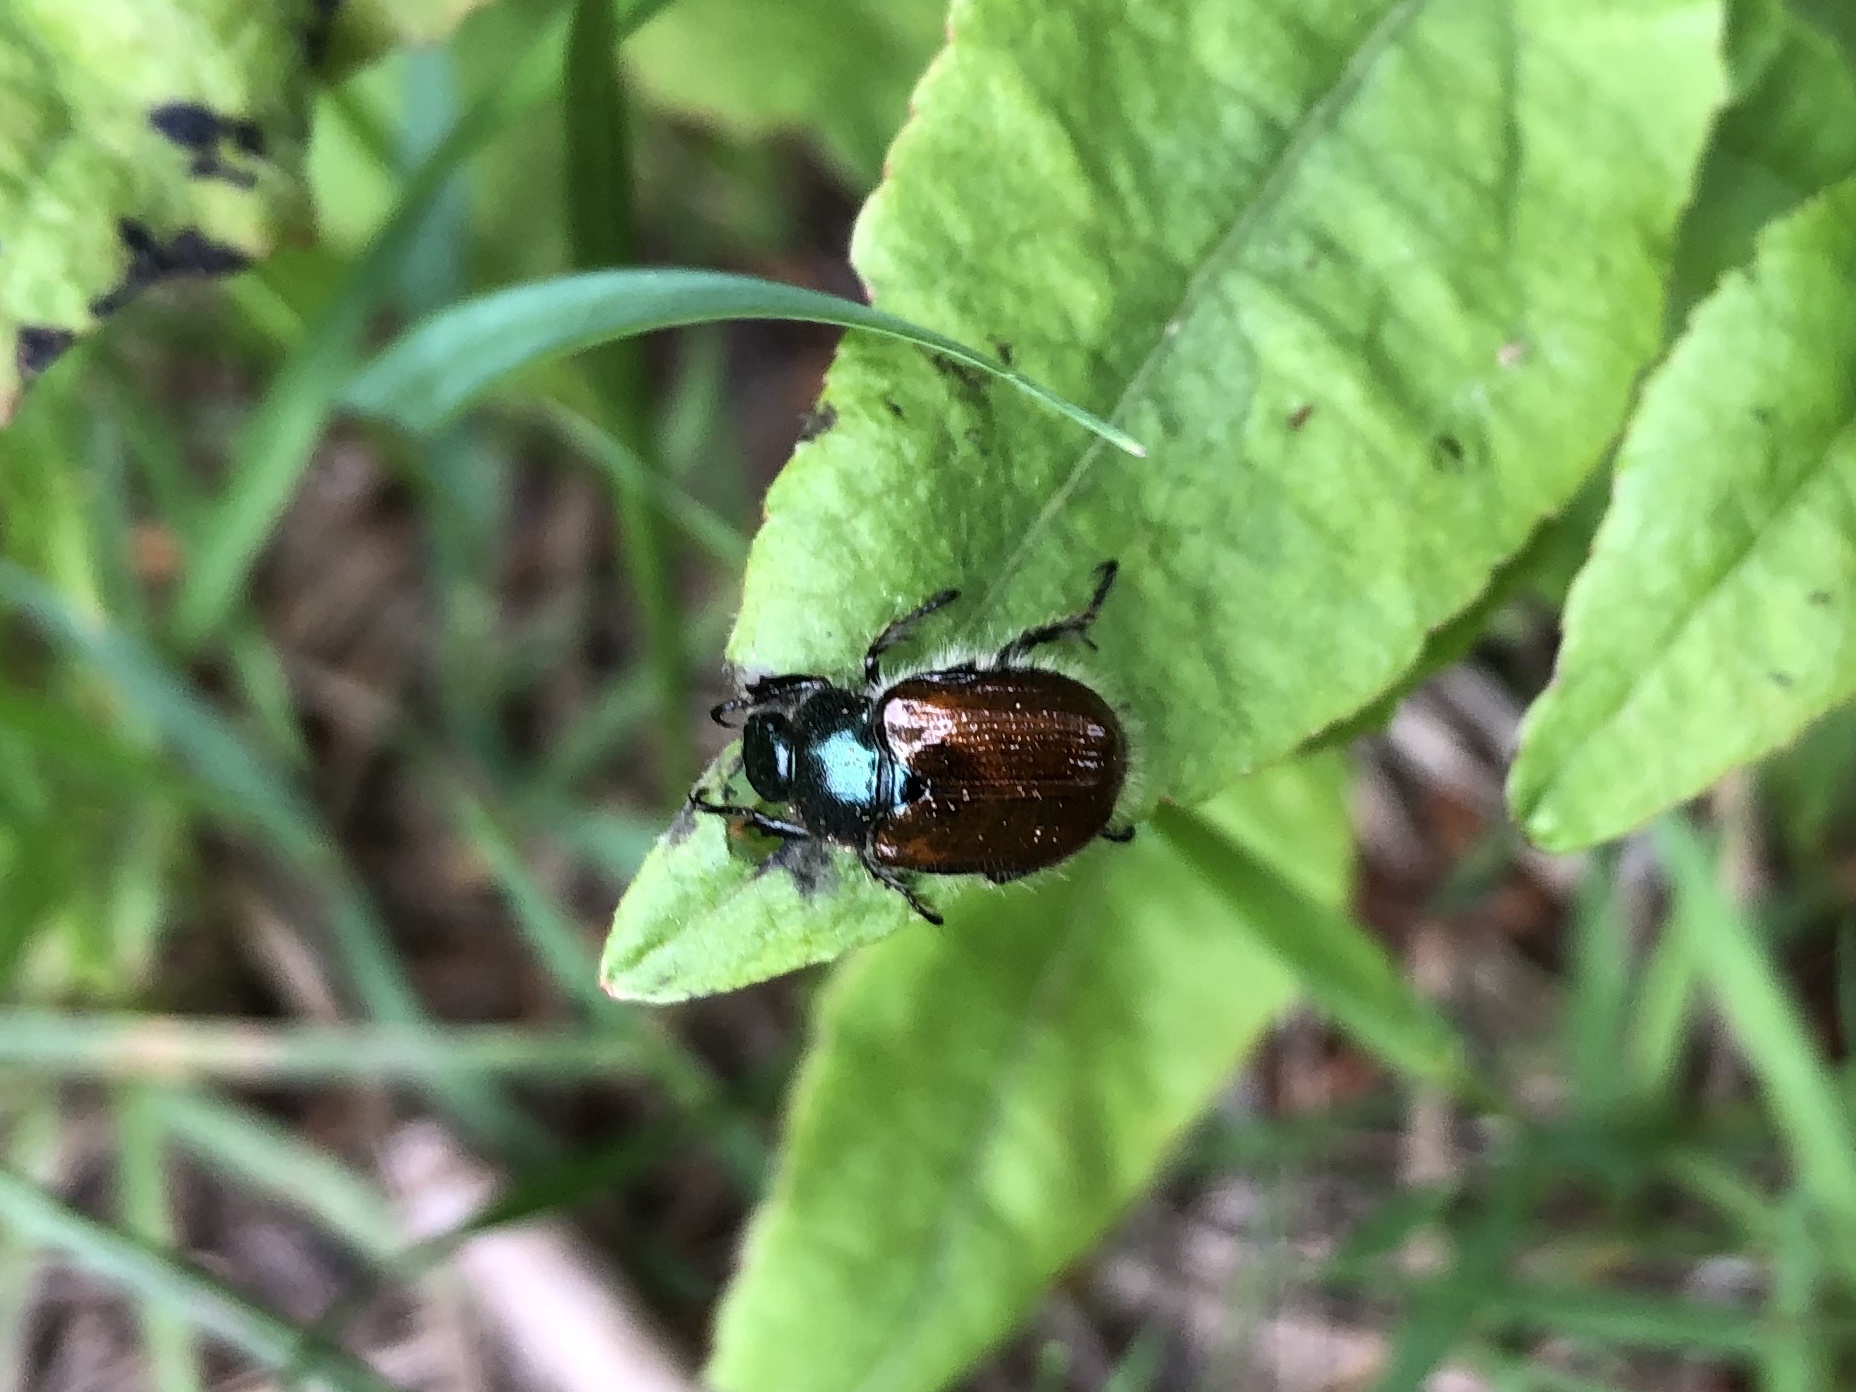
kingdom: Animalia
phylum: Arthropoda
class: Insecta
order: Coleoptera
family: Scarabaeidae
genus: Phyllopertha
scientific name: Phyllopertha horticola
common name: Garden chafer
